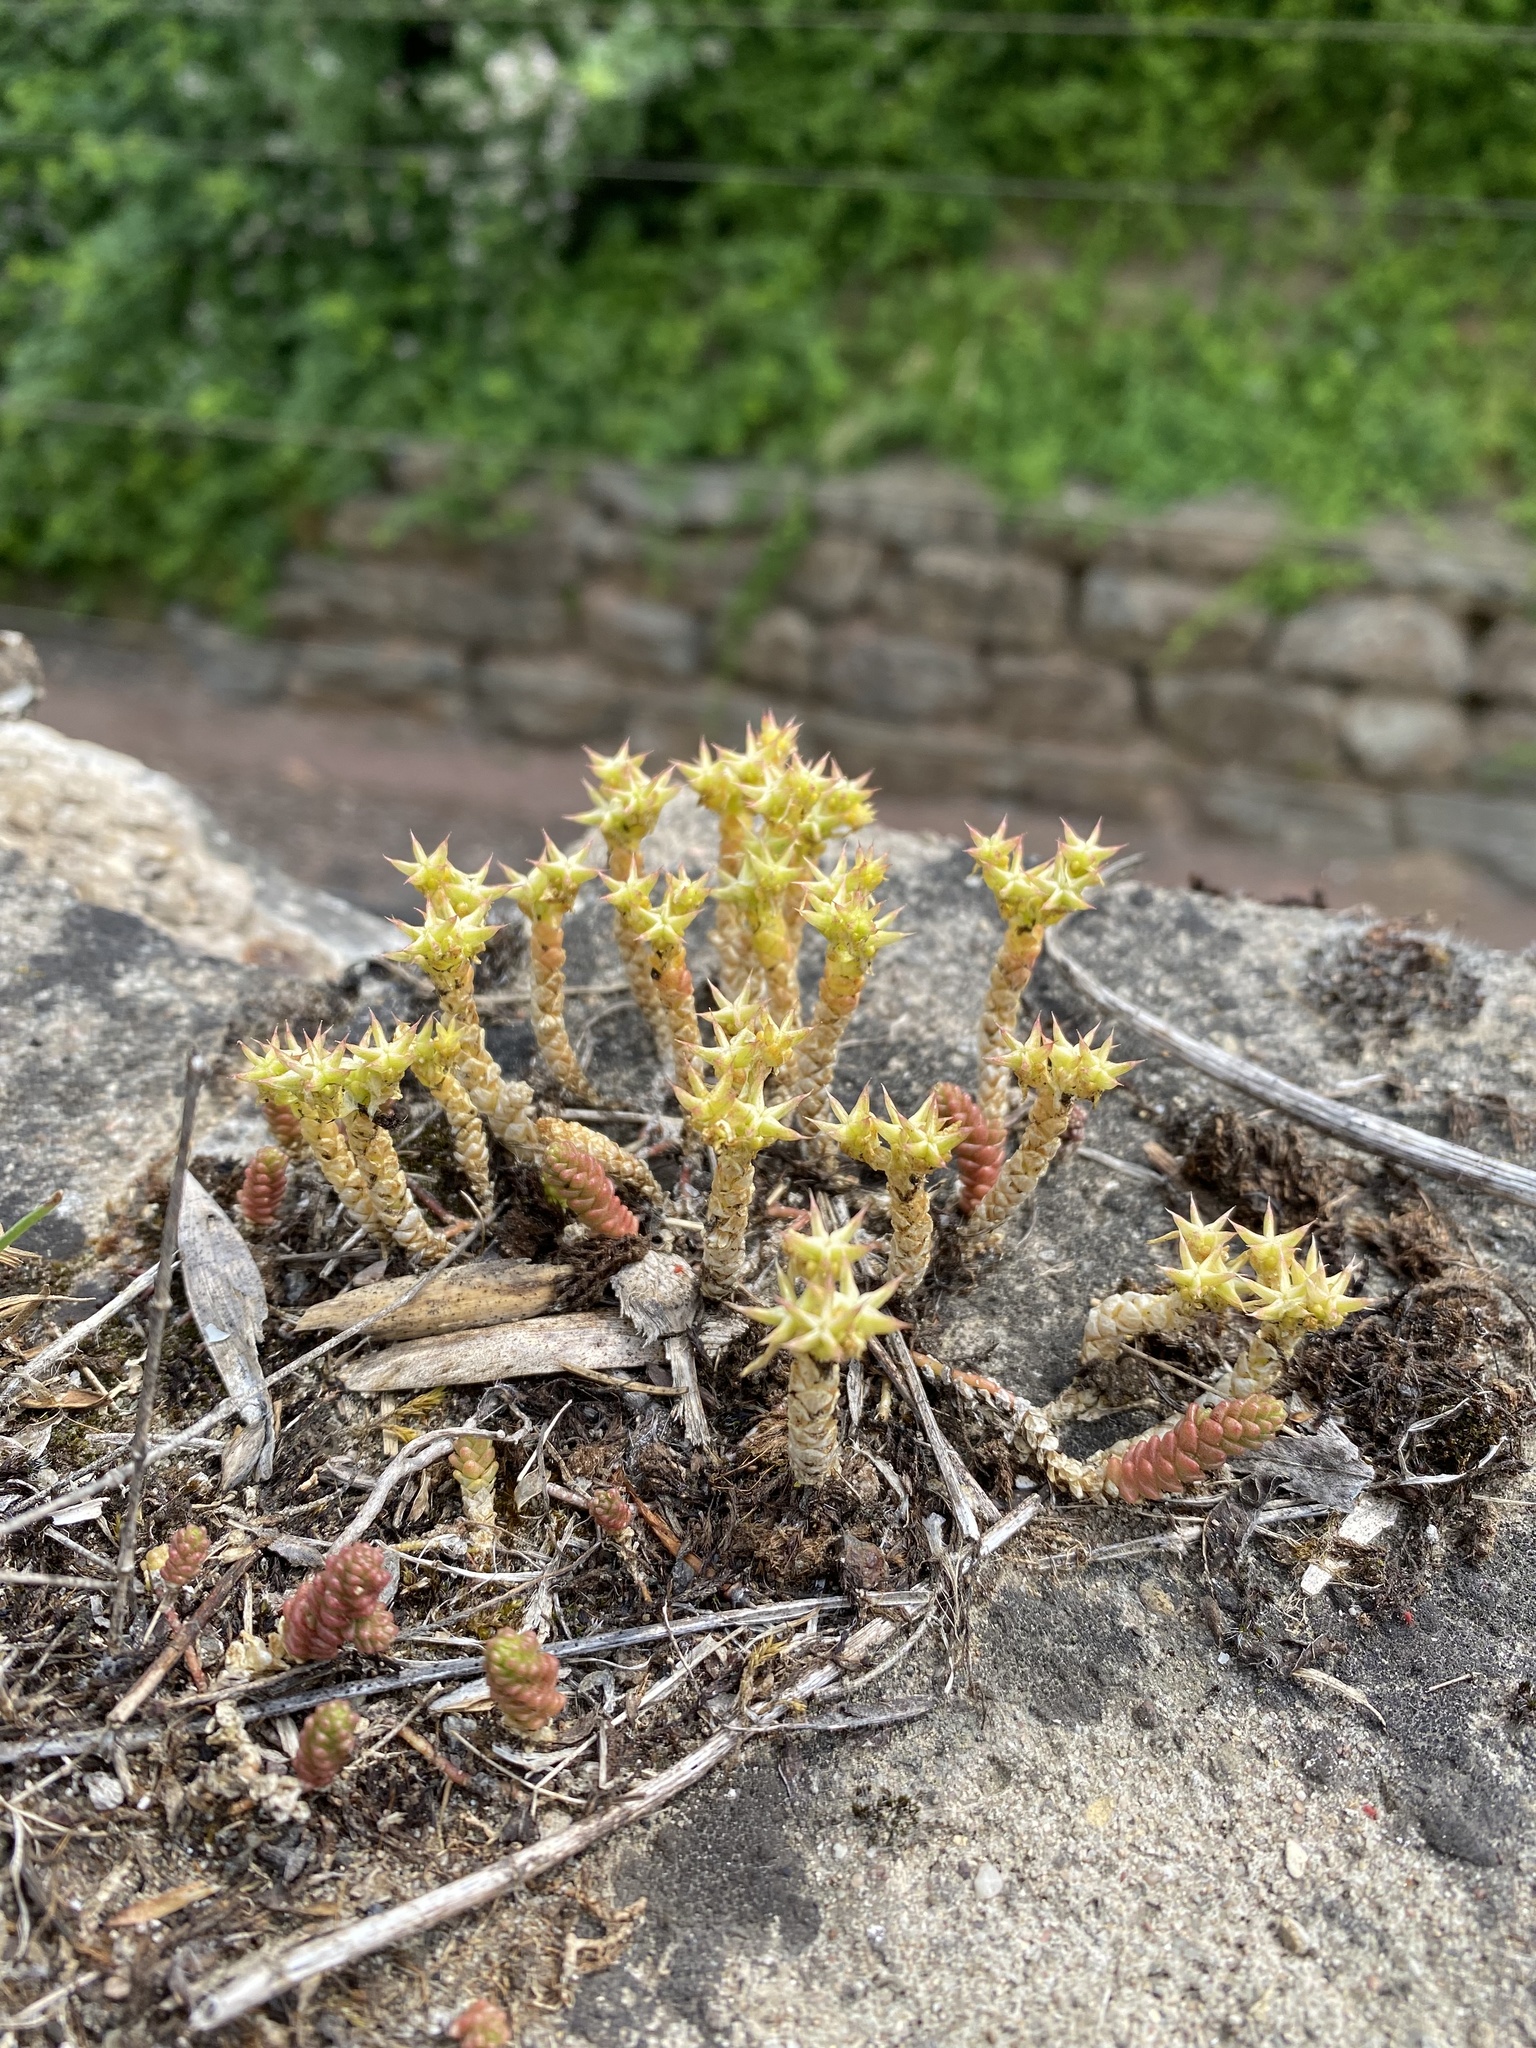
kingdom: Plantae
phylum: Tracheophyta
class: Magnoliopsida
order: Saxifragales
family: Crassulaceae
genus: Sedum
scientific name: Sedum acre
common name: Biting stonecrop
